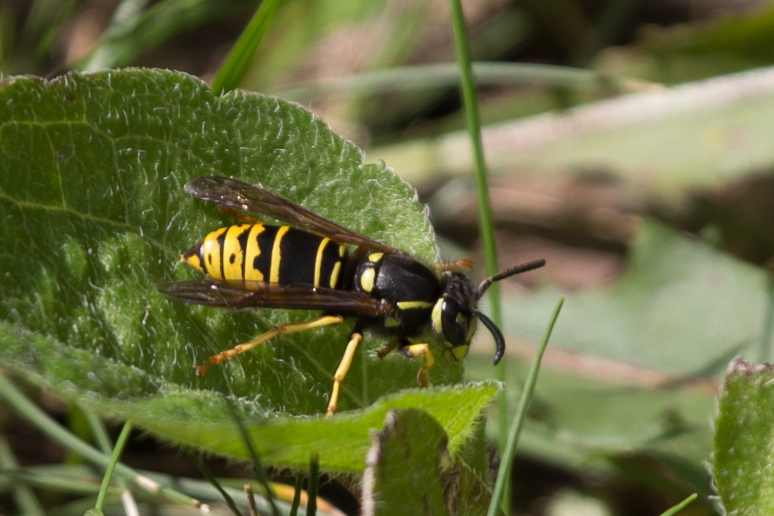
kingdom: Animalia
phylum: Arthropoda
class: Insecta
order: Hymenoptera
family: Vespidae
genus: Vespula
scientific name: Vespula vidua
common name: Widow yellowjacket
